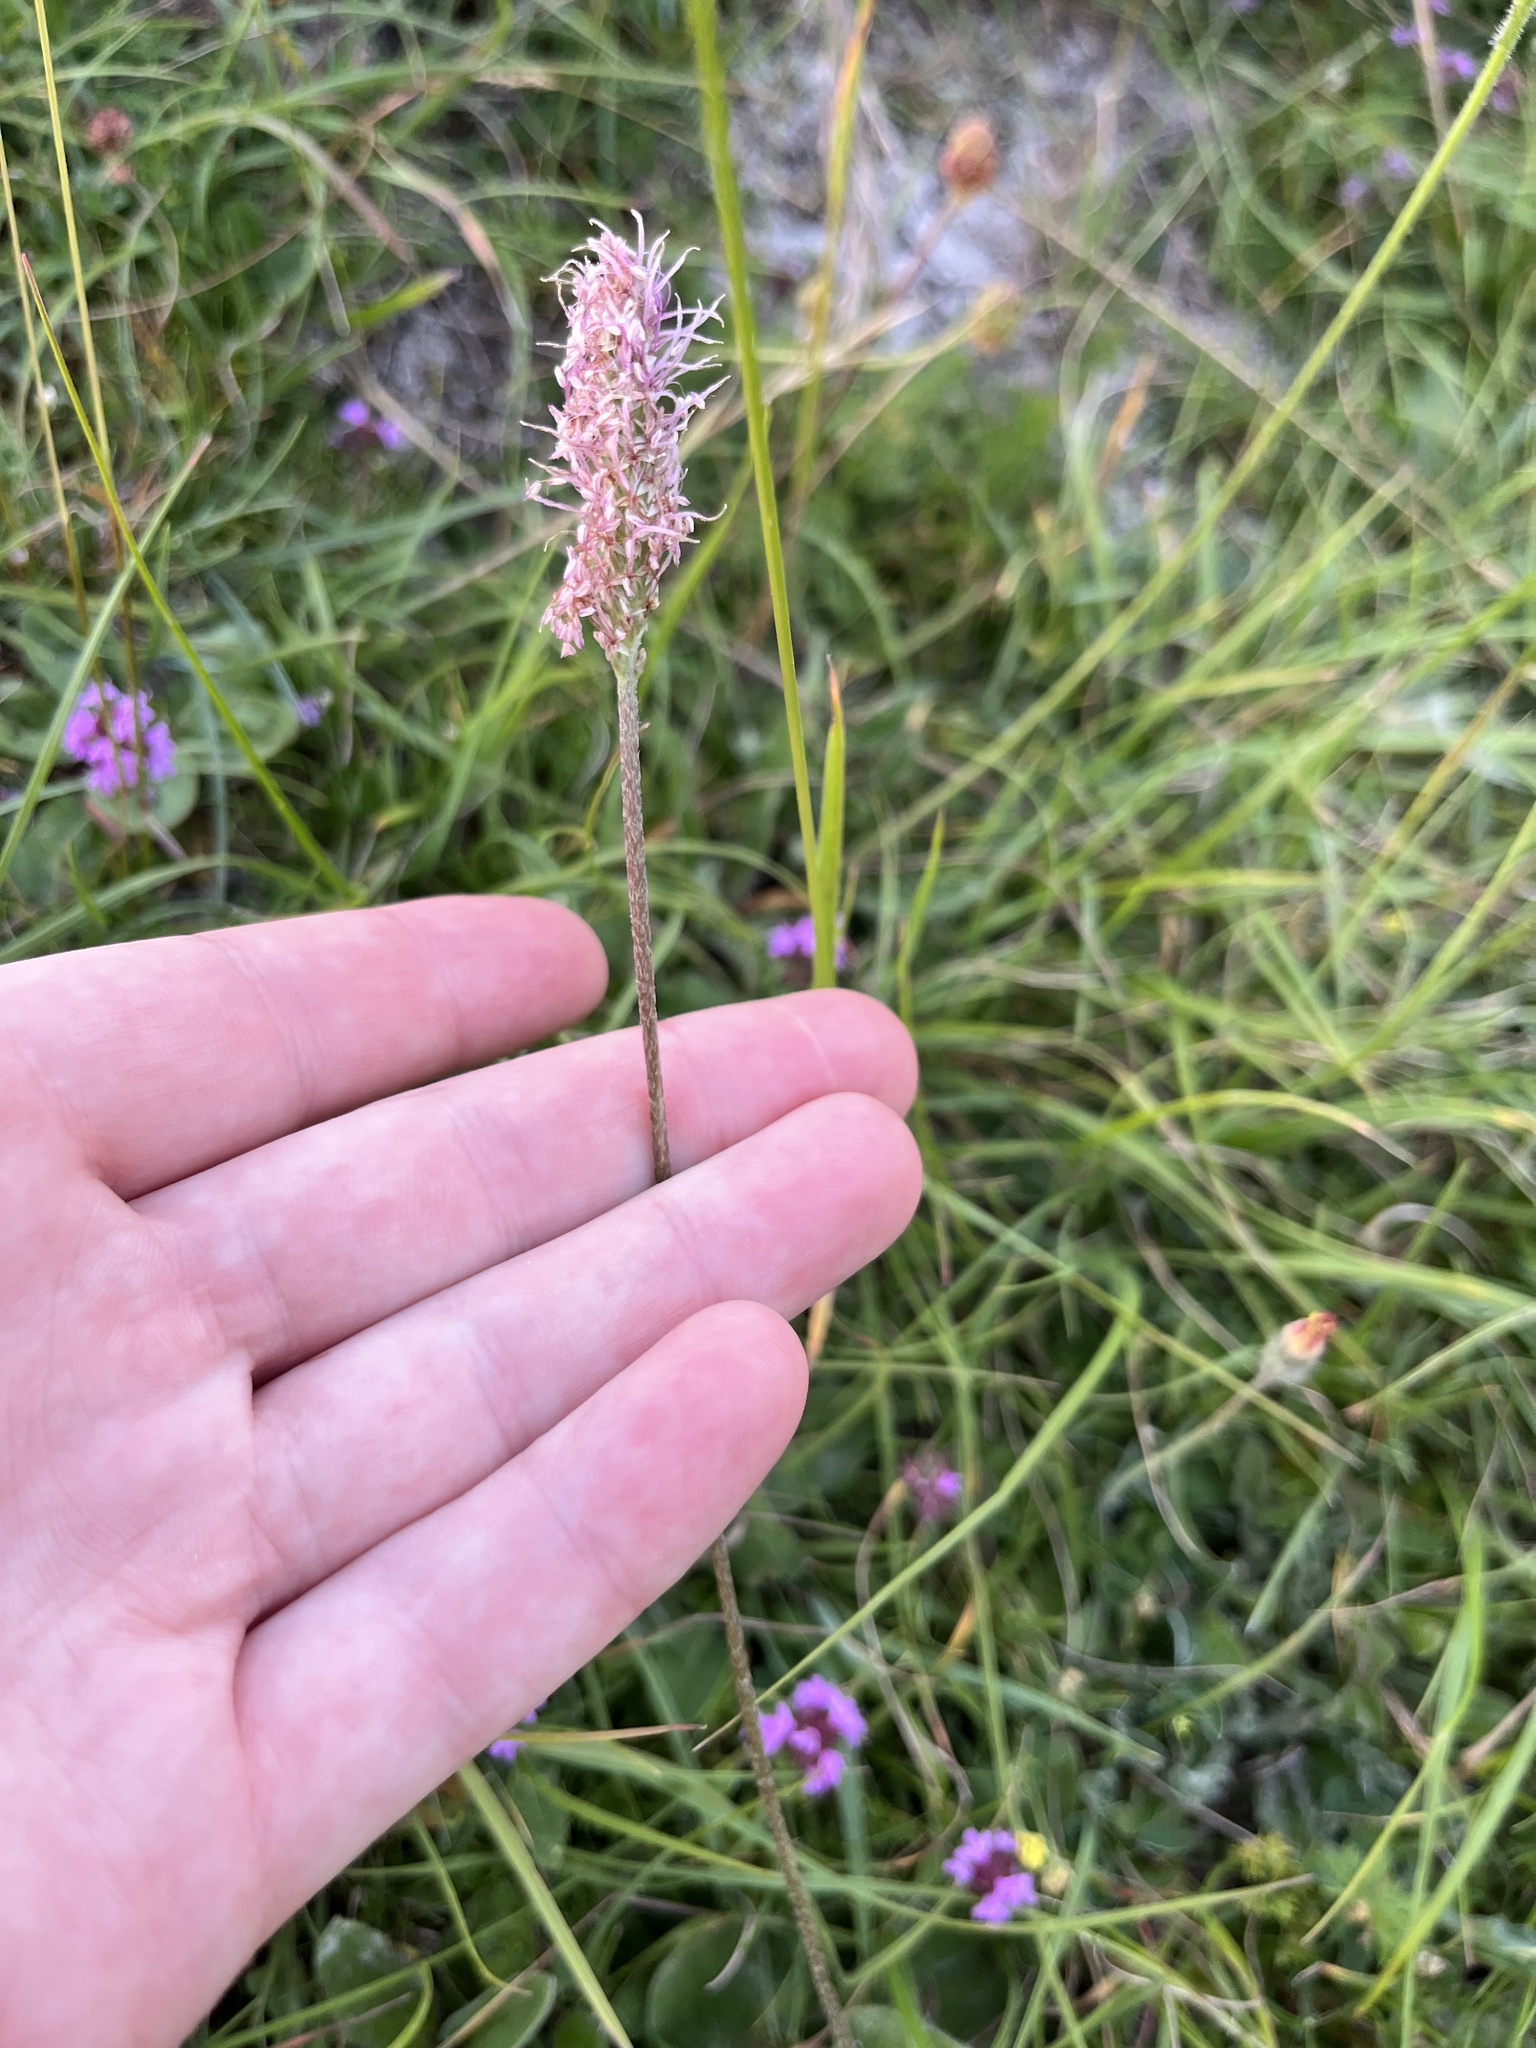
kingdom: Plantae
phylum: Tracheophyta
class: Magnoliopsida
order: Lamiales
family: Plantaginaceae
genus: Plantago
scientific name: Plantago media
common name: Hoary plantain
